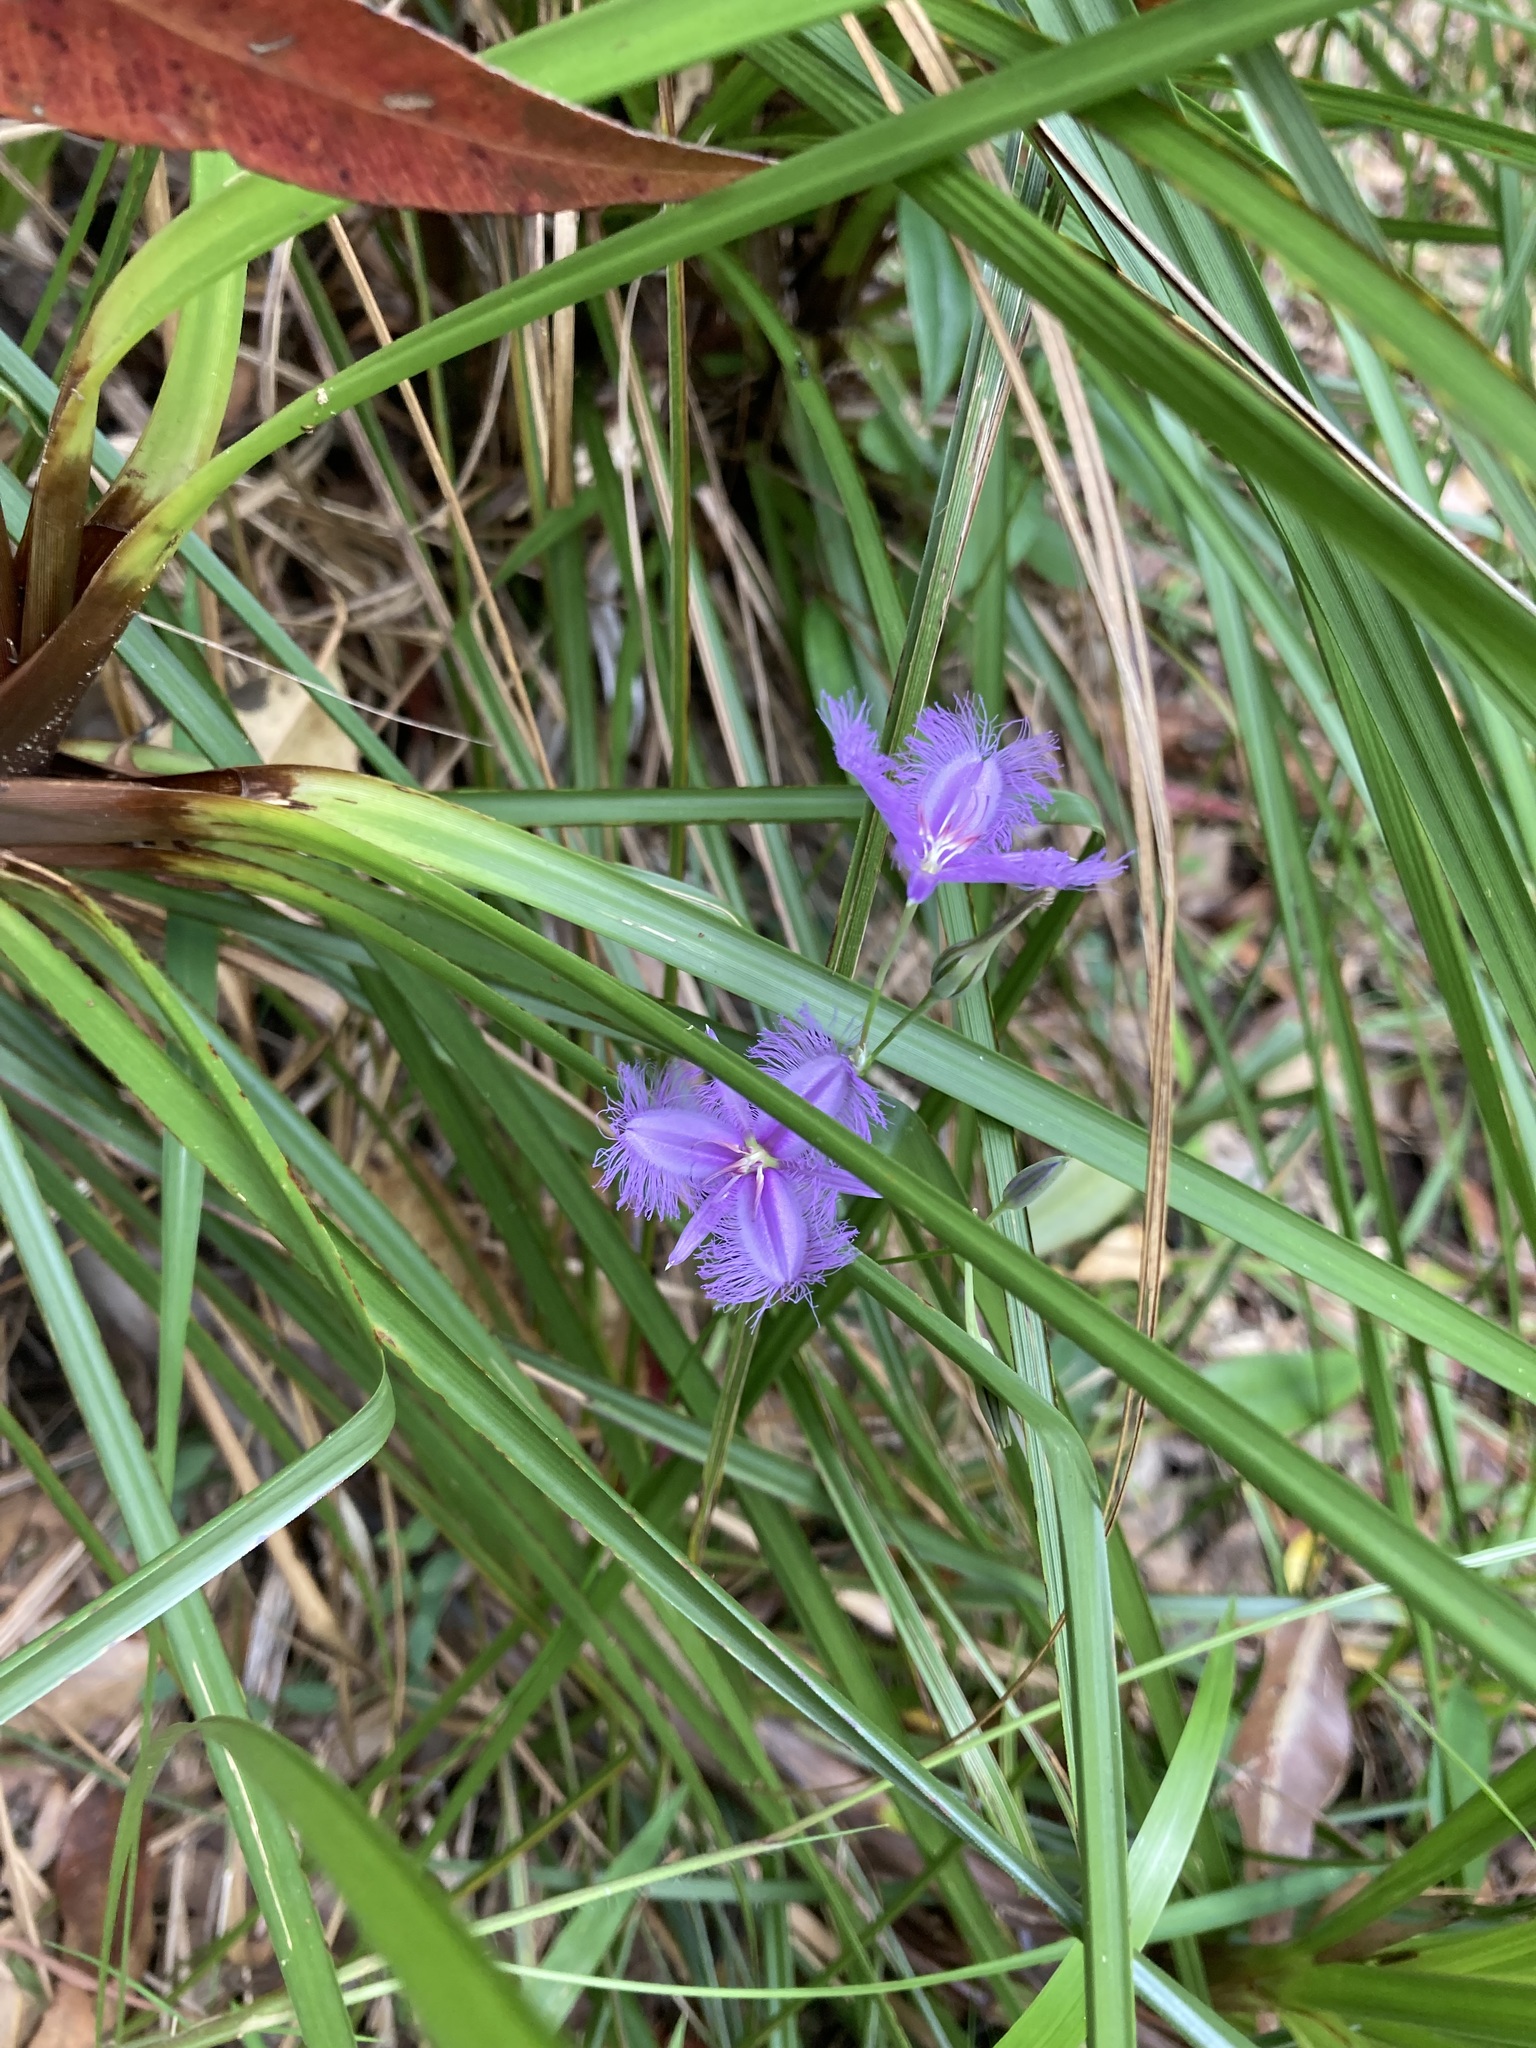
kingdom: Plantae
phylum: Tracheophyta
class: Liliopsida
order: Asparagales
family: Asparagaceae
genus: Thysanotus
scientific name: Thysanotus tuberosus
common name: Common fringed-lily
